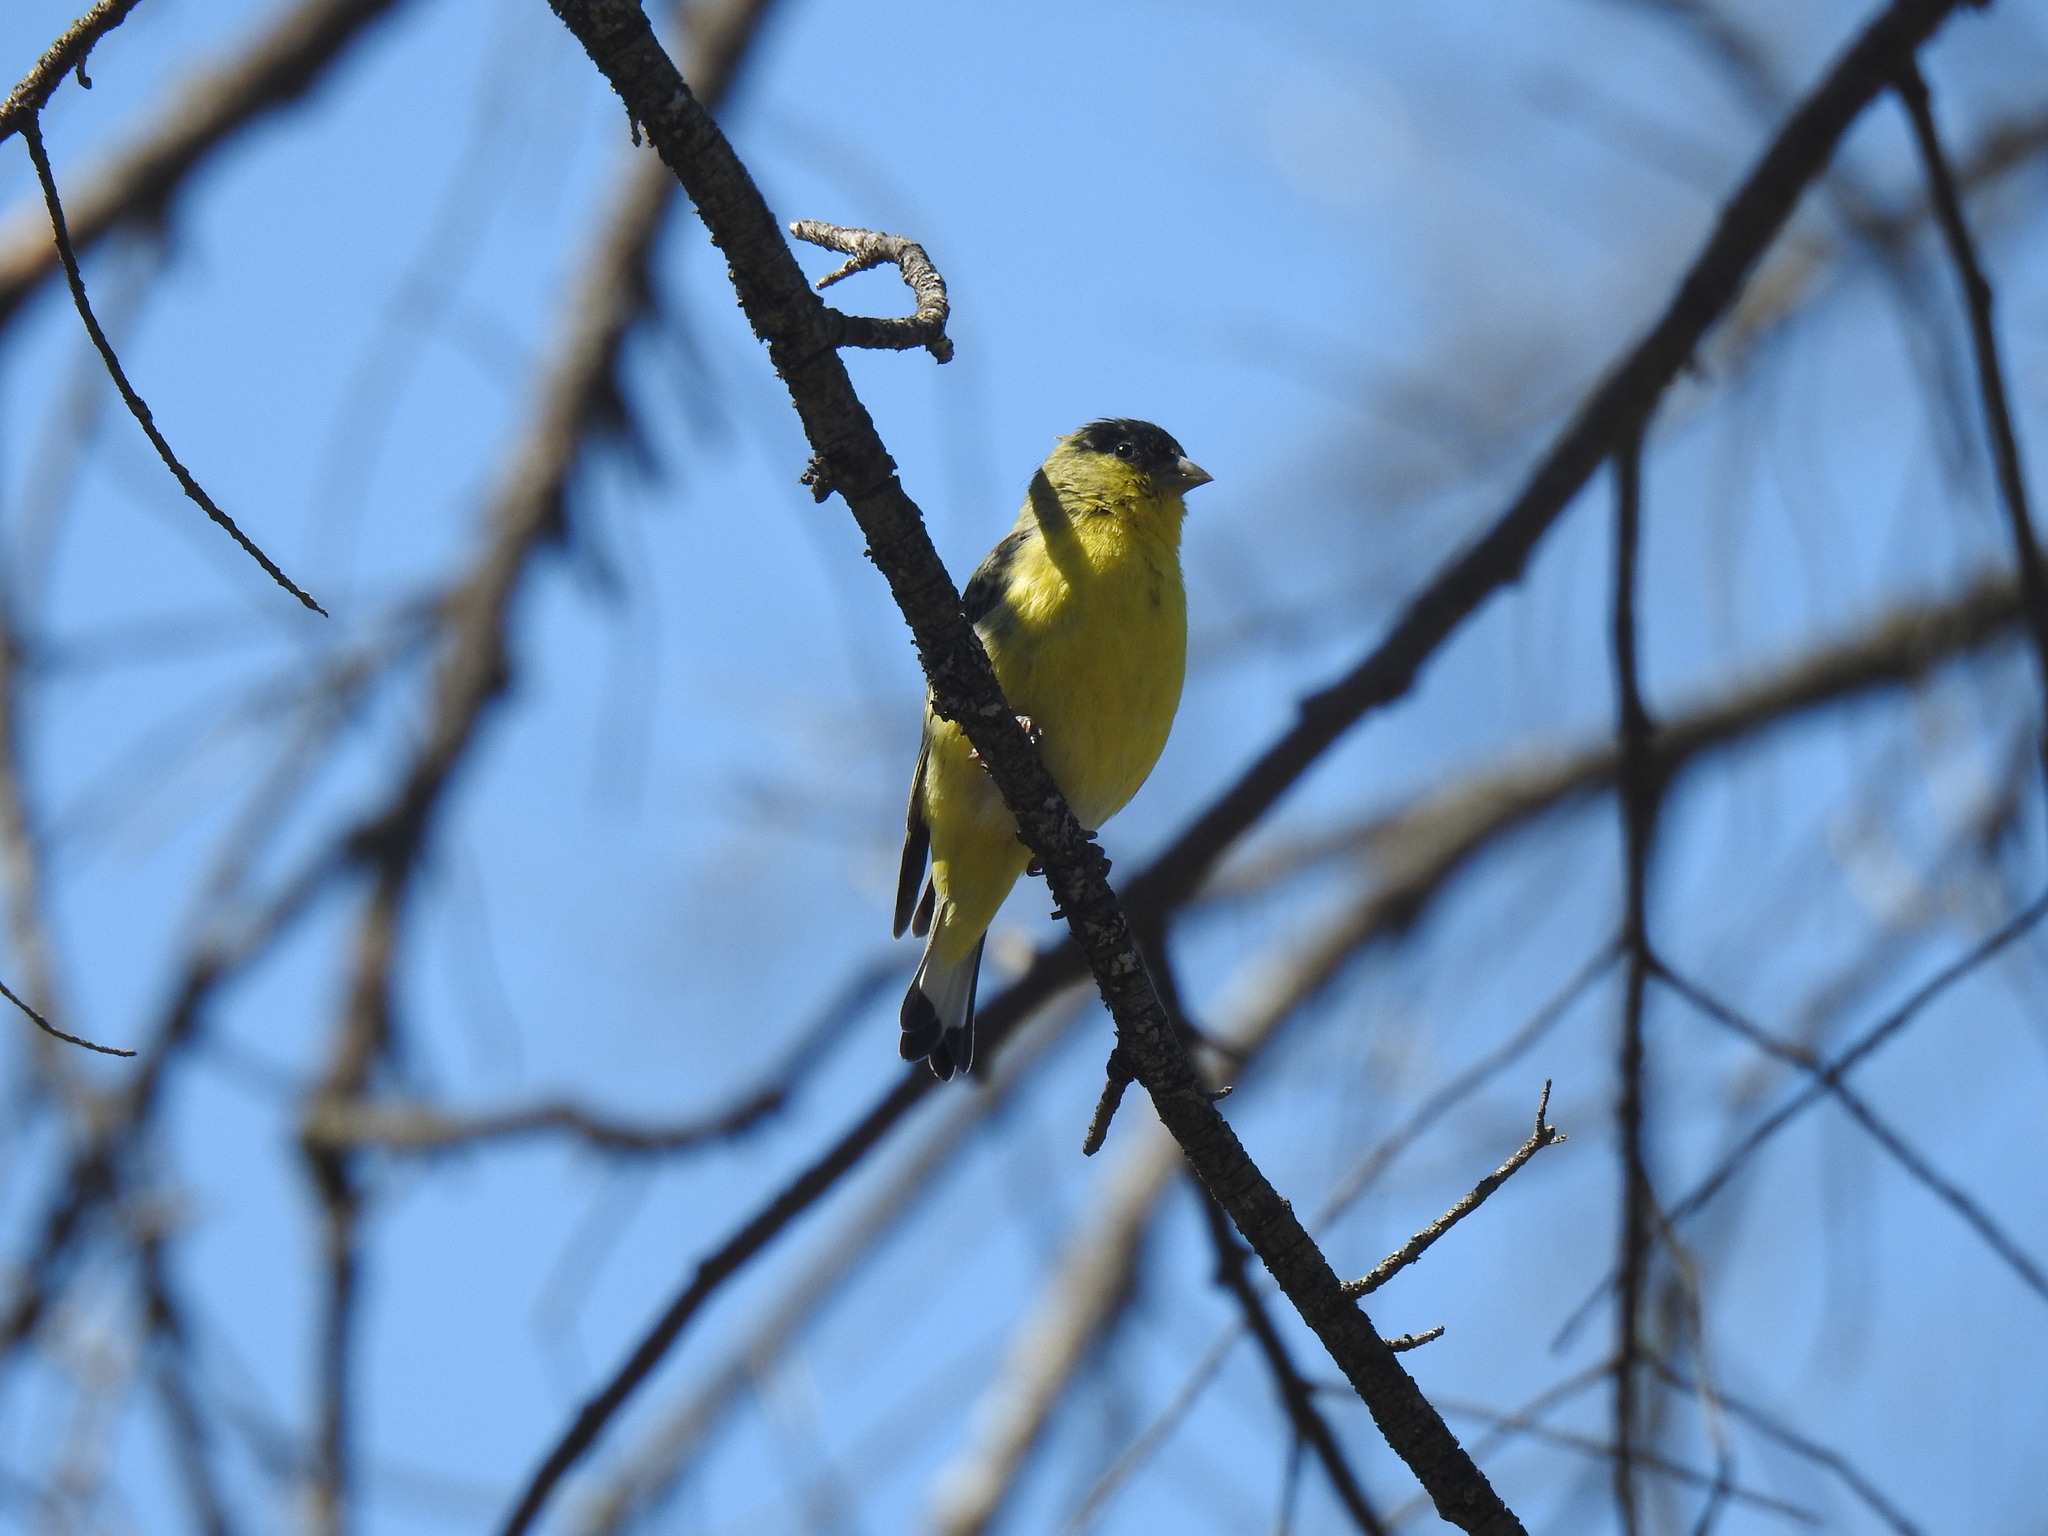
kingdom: Animalia
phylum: Chordata
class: Aves
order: Passeriformes
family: Fringillidae
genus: Spinus
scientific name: Spinus psaltria
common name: Lesser goldfinch
